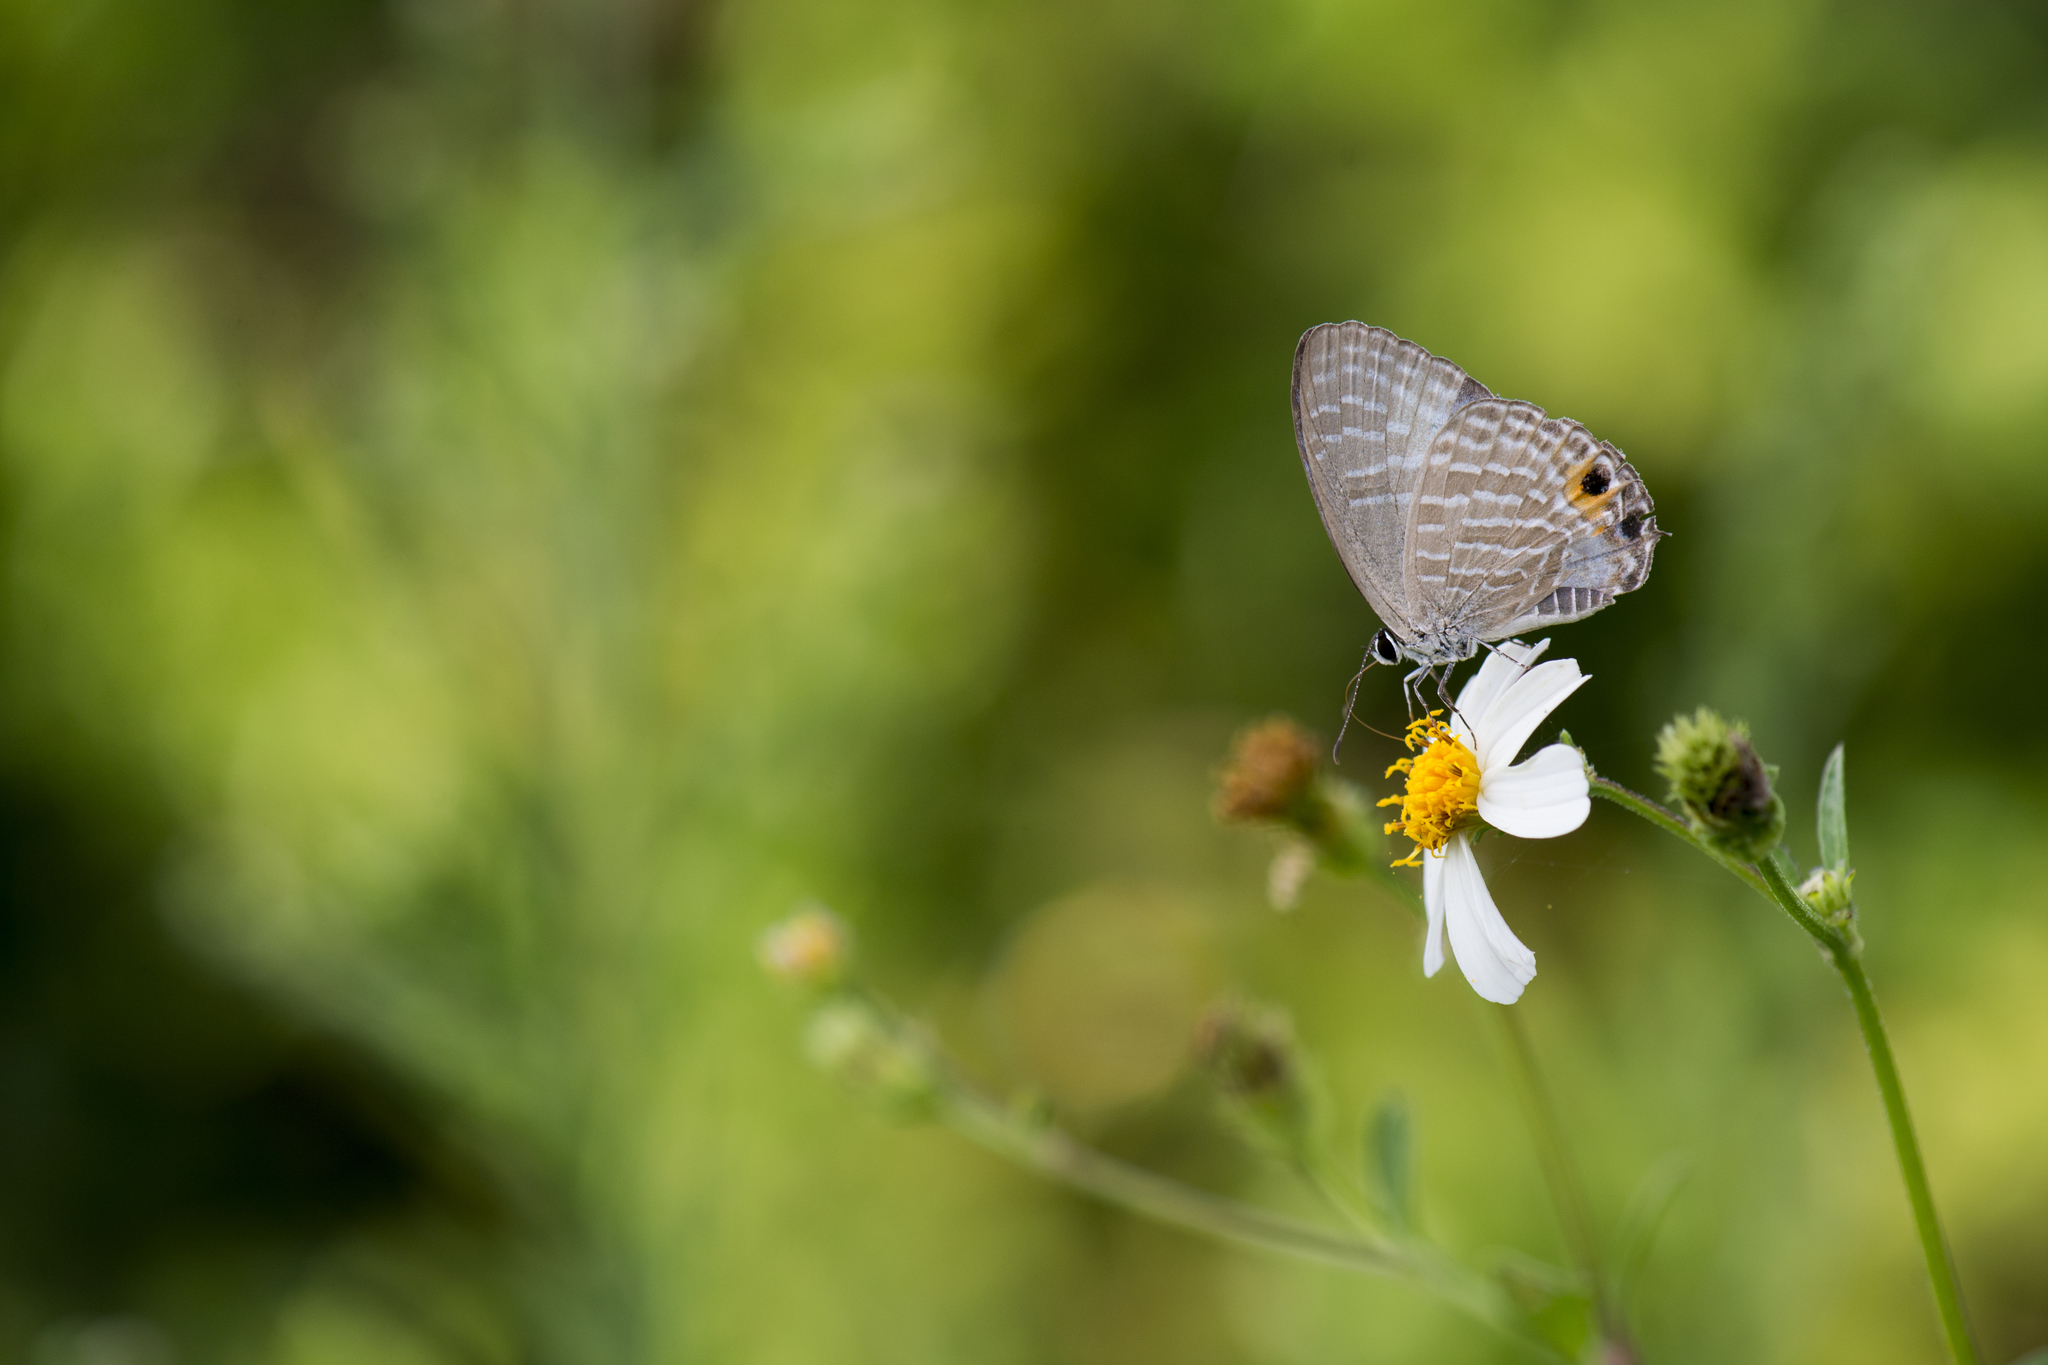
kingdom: Animalia
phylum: Arthropoda
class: Insecta
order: Lepidoptera
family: Lycaenidae
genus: Jamides
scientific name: Jamides alecto
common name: Metallic cerulean
